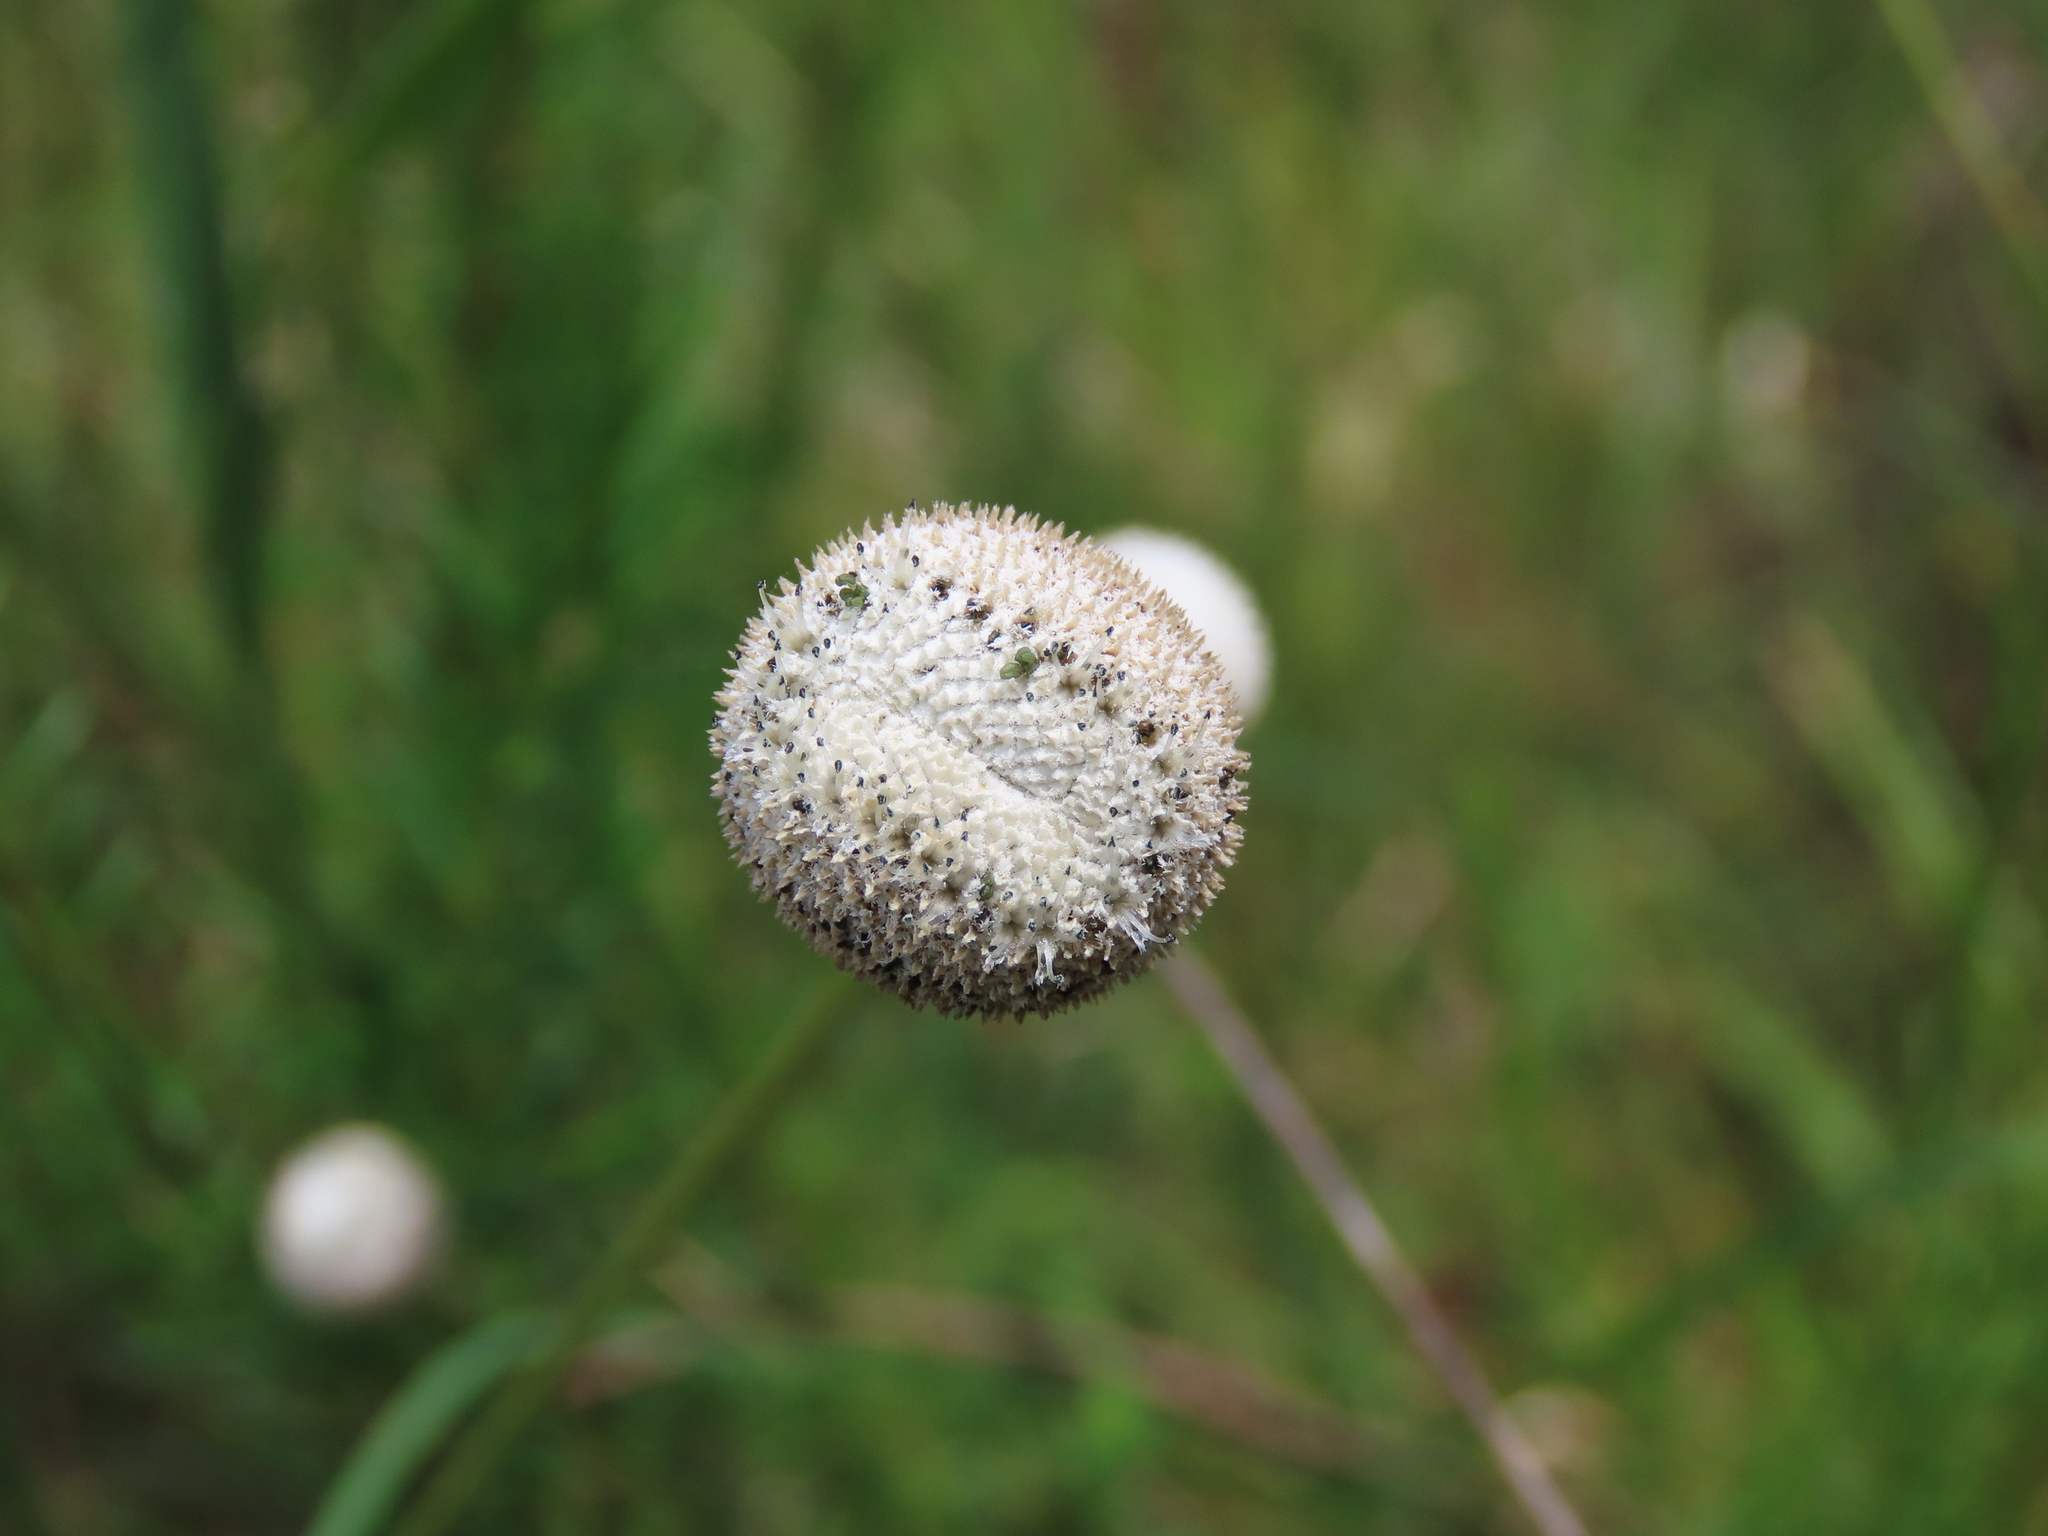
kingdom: Plantae
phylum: Tracheophyta
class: Liliopsida
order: Poales
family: Eriocaulaceae
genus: Eriocaulon
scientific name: Eriocaulon decangulare
